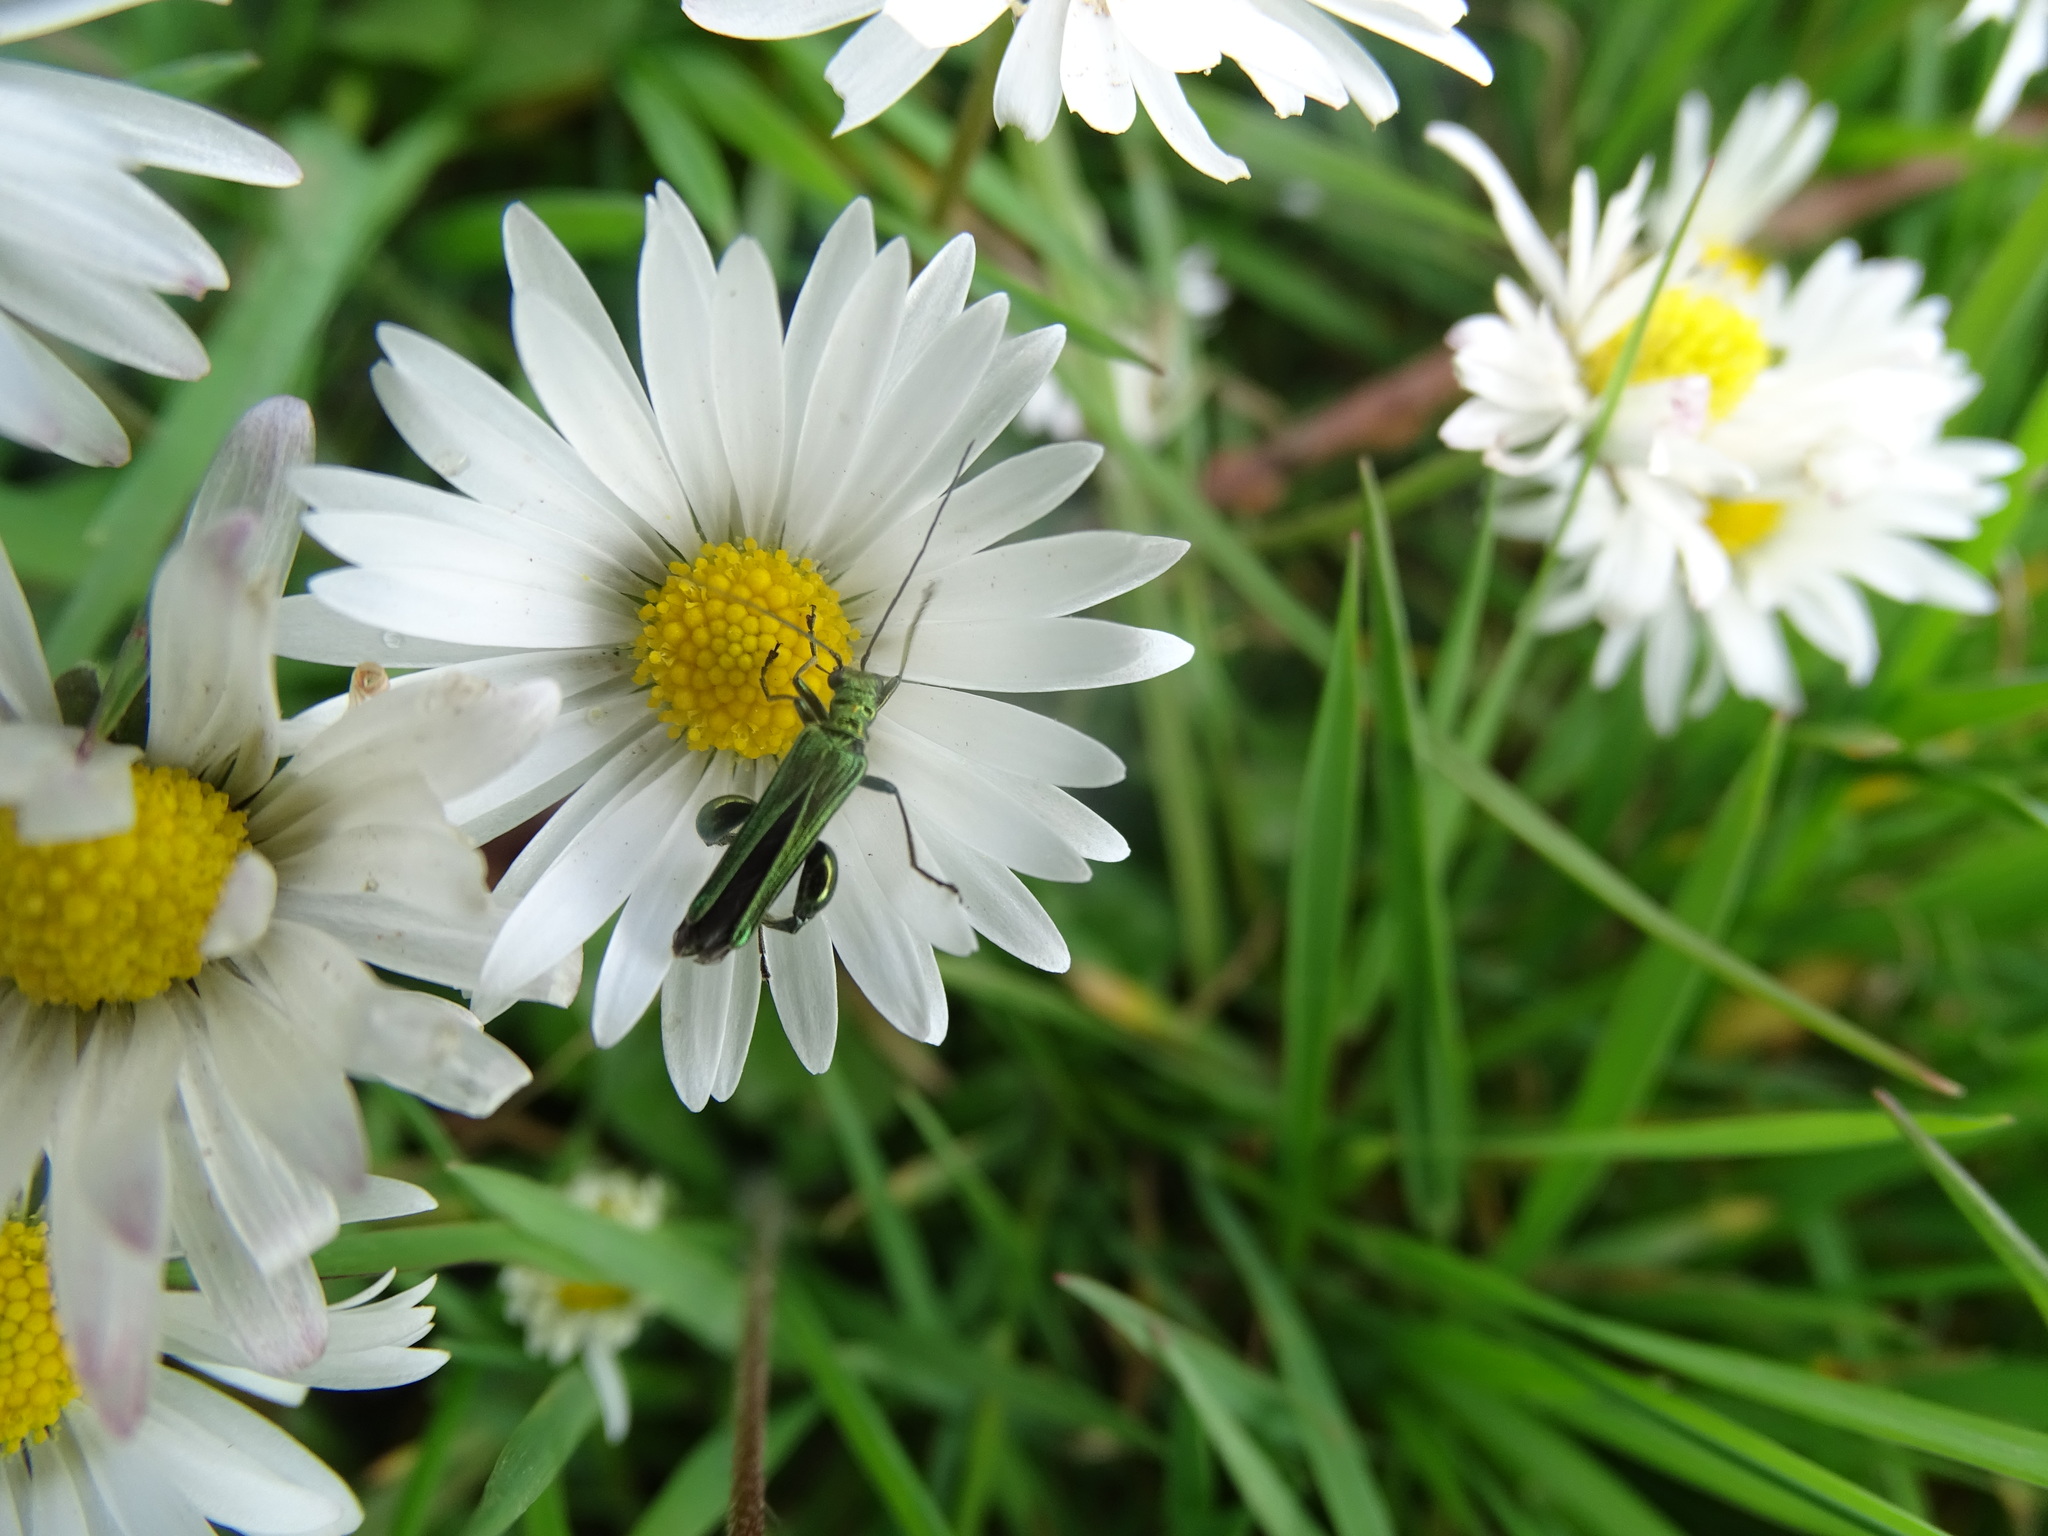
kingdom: Animalia
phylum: Arthropoda
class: Insecta
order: Coleoptera
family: Oedemeridae
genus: Oedemera
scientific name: Oedemera nobilis
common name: Swollen-thighed beetle
